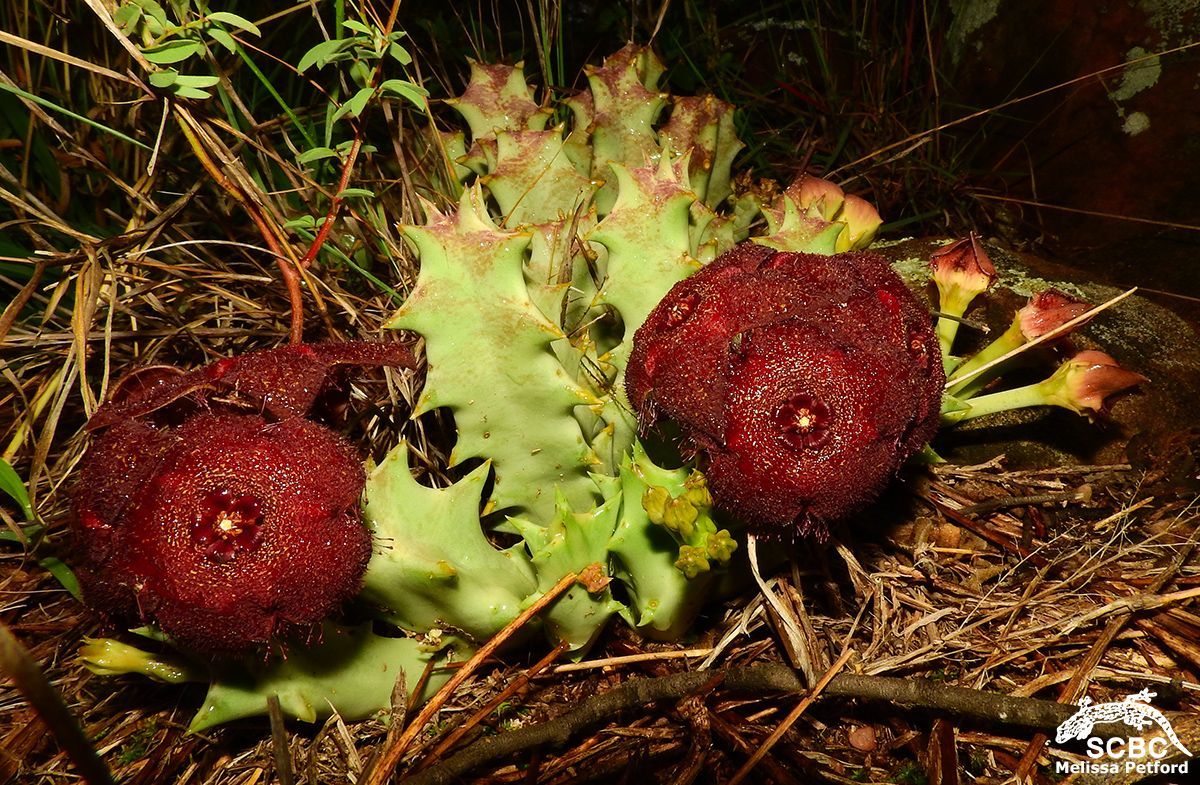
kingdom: Plantae
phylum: Tracheophyta
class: Magnoliopsida
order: Gentianales
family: Apocynaceae
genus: Ceropegia
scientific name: Ceropegia melanantha
